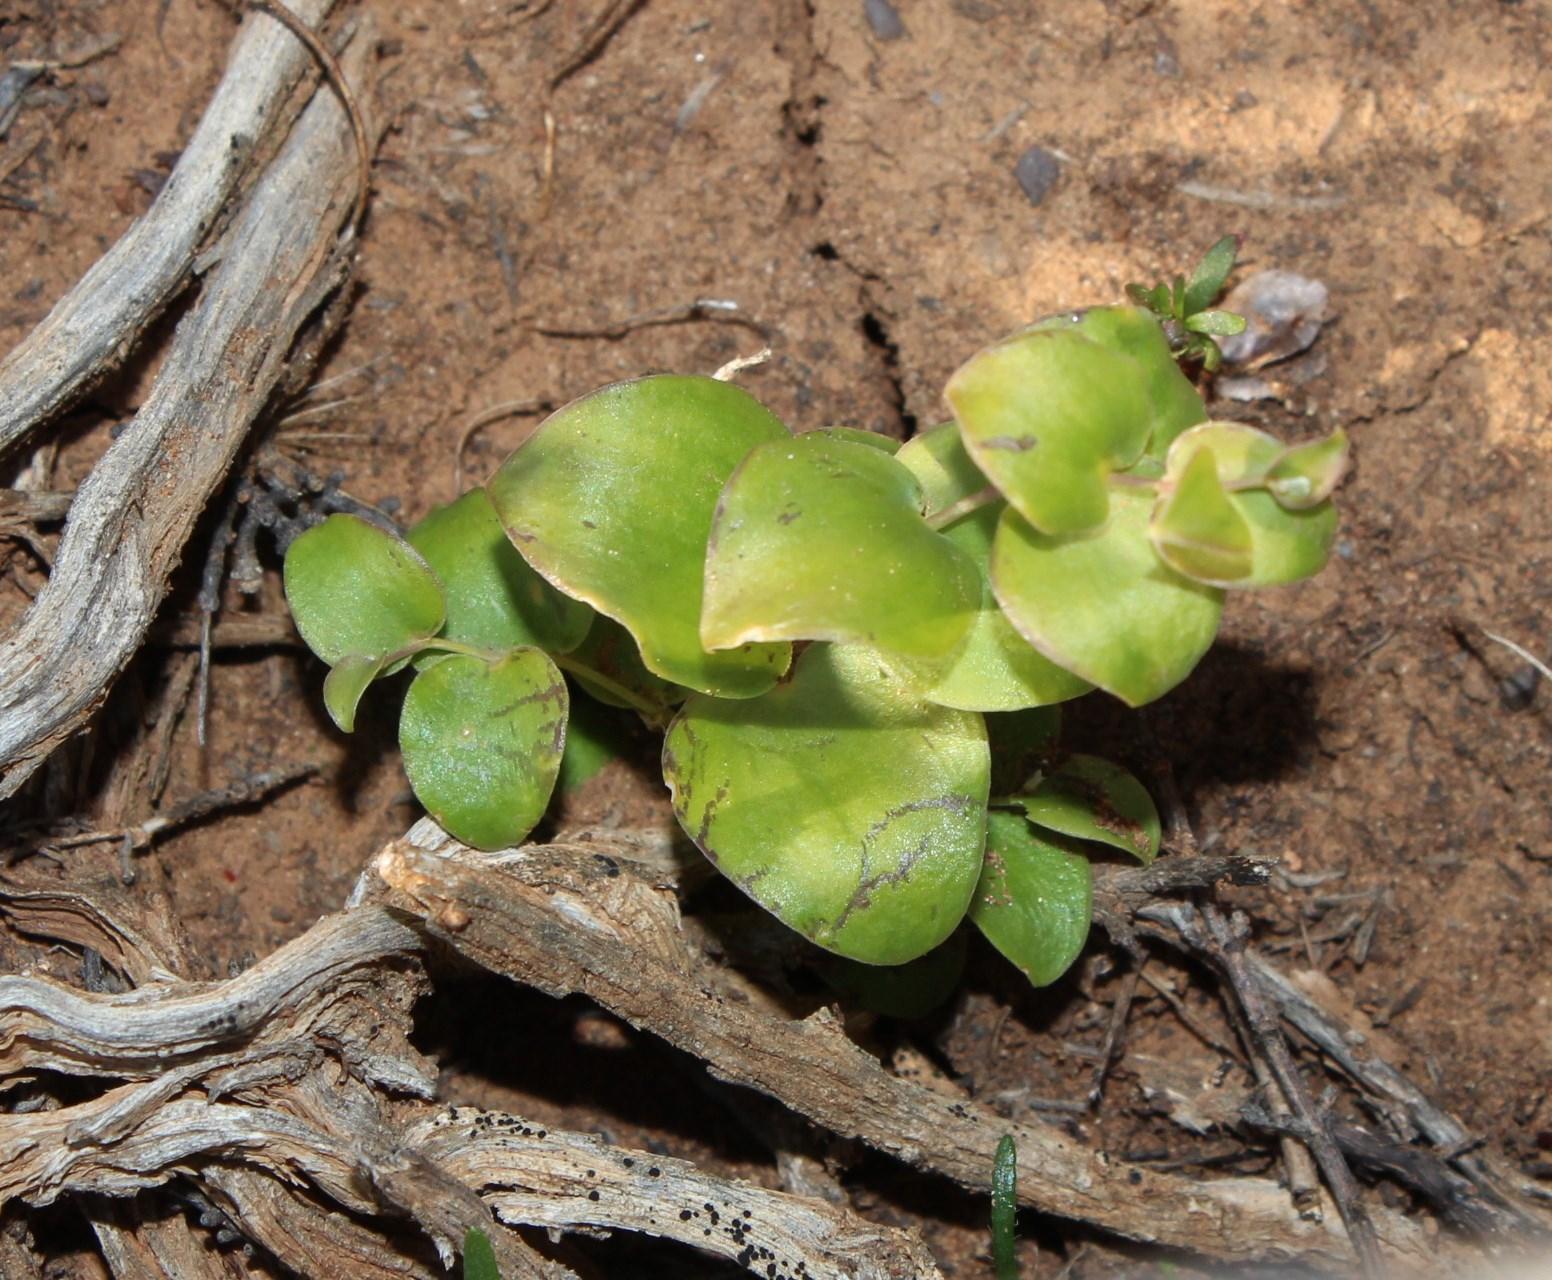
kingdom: Plantae
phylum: Tracheophyta
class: Liliopsida
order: Asparagales
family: Asparagaceae
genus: Asparagus
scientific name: Asparagus multituberosus
